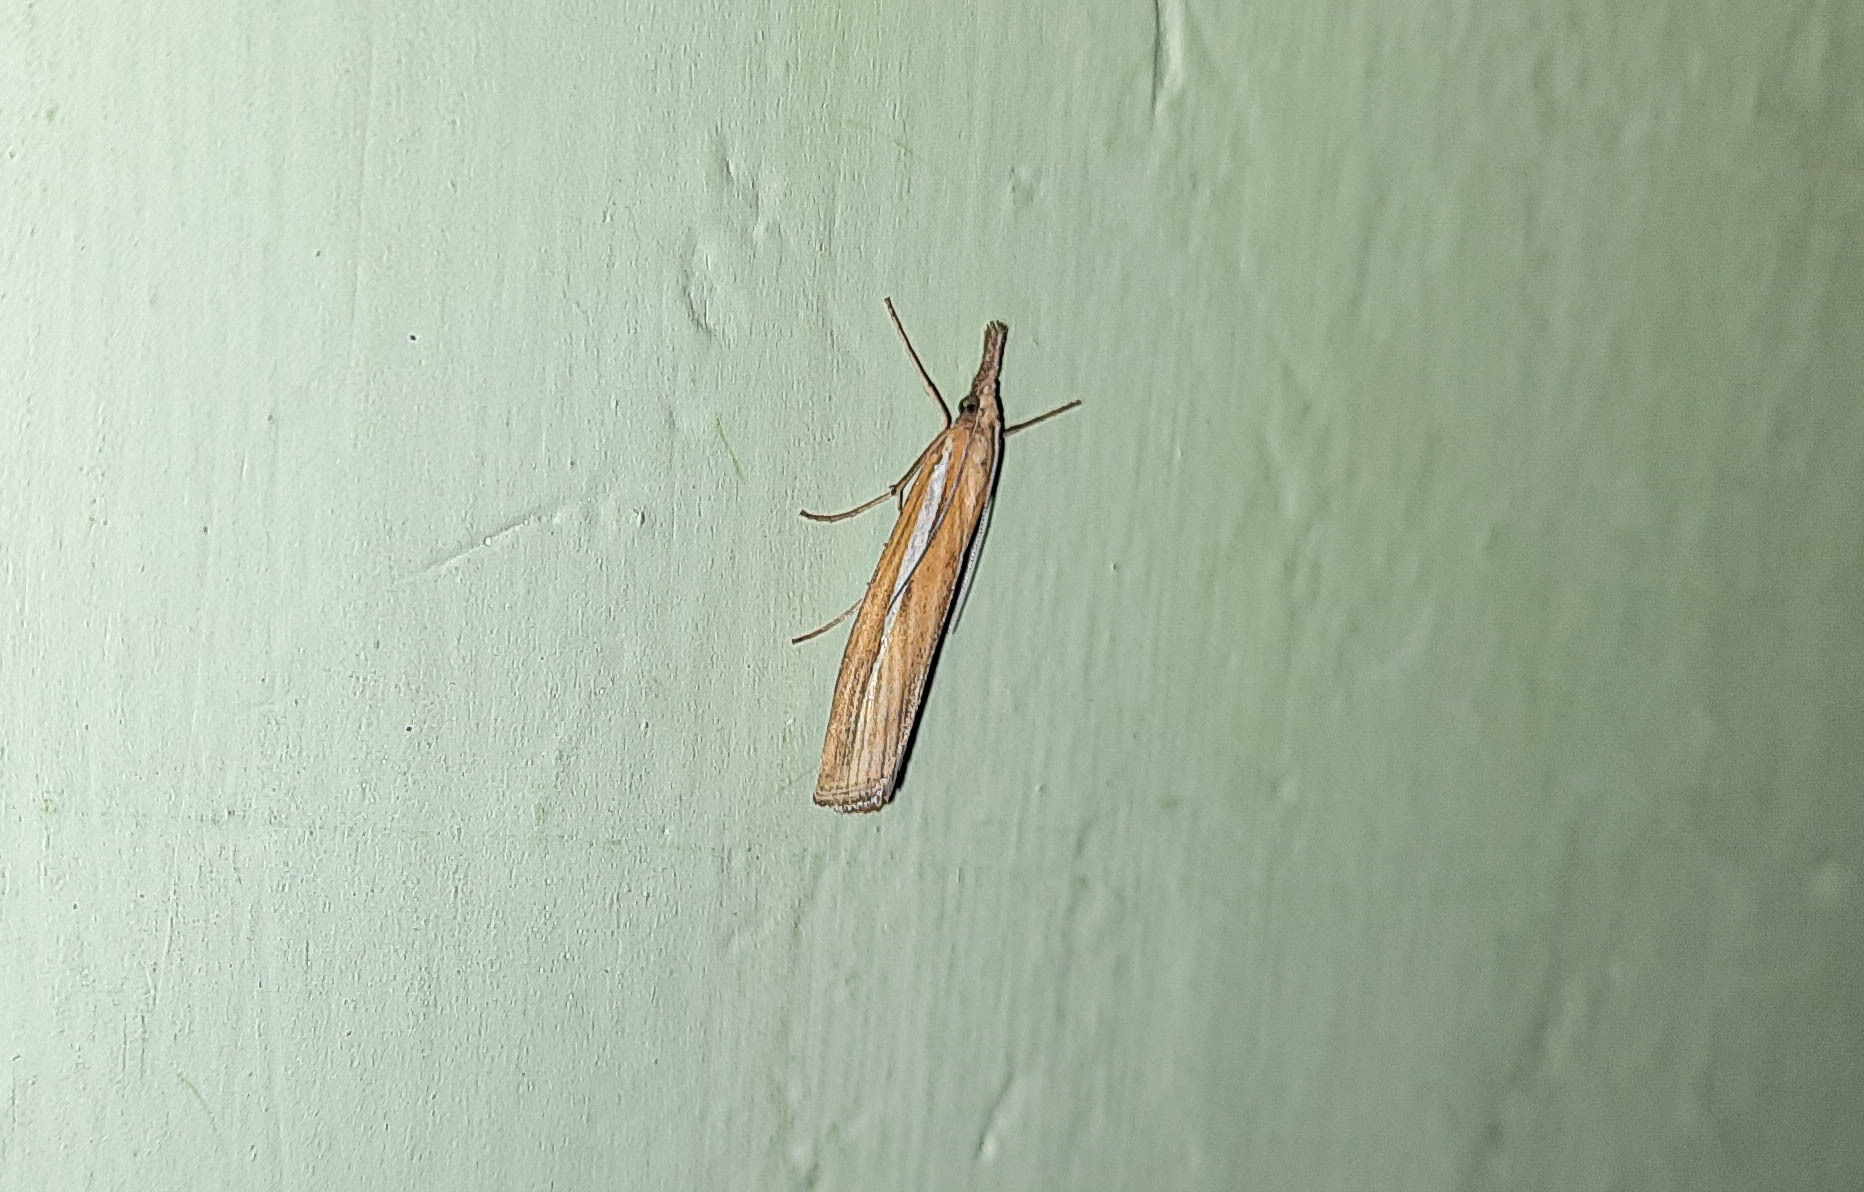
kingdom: Animalia
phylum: Arthropoda
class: Insecta
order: Lepidoptera
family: Crambidae
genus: Agriphila
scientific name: Agriphila tristellus
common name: Common grass-veneer
